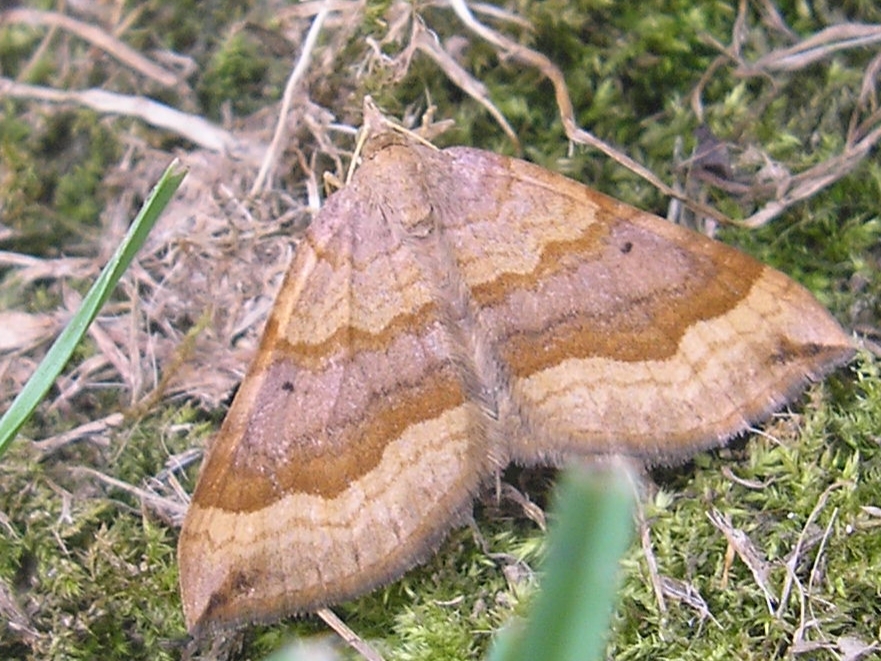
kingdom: Animalia
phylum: Arthropoda
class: Insecta
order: Lepidoptera
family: Geometridae
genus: Scotopteryx
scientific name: Scotopteryx chenopodiata
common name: Shaded broad-bar
